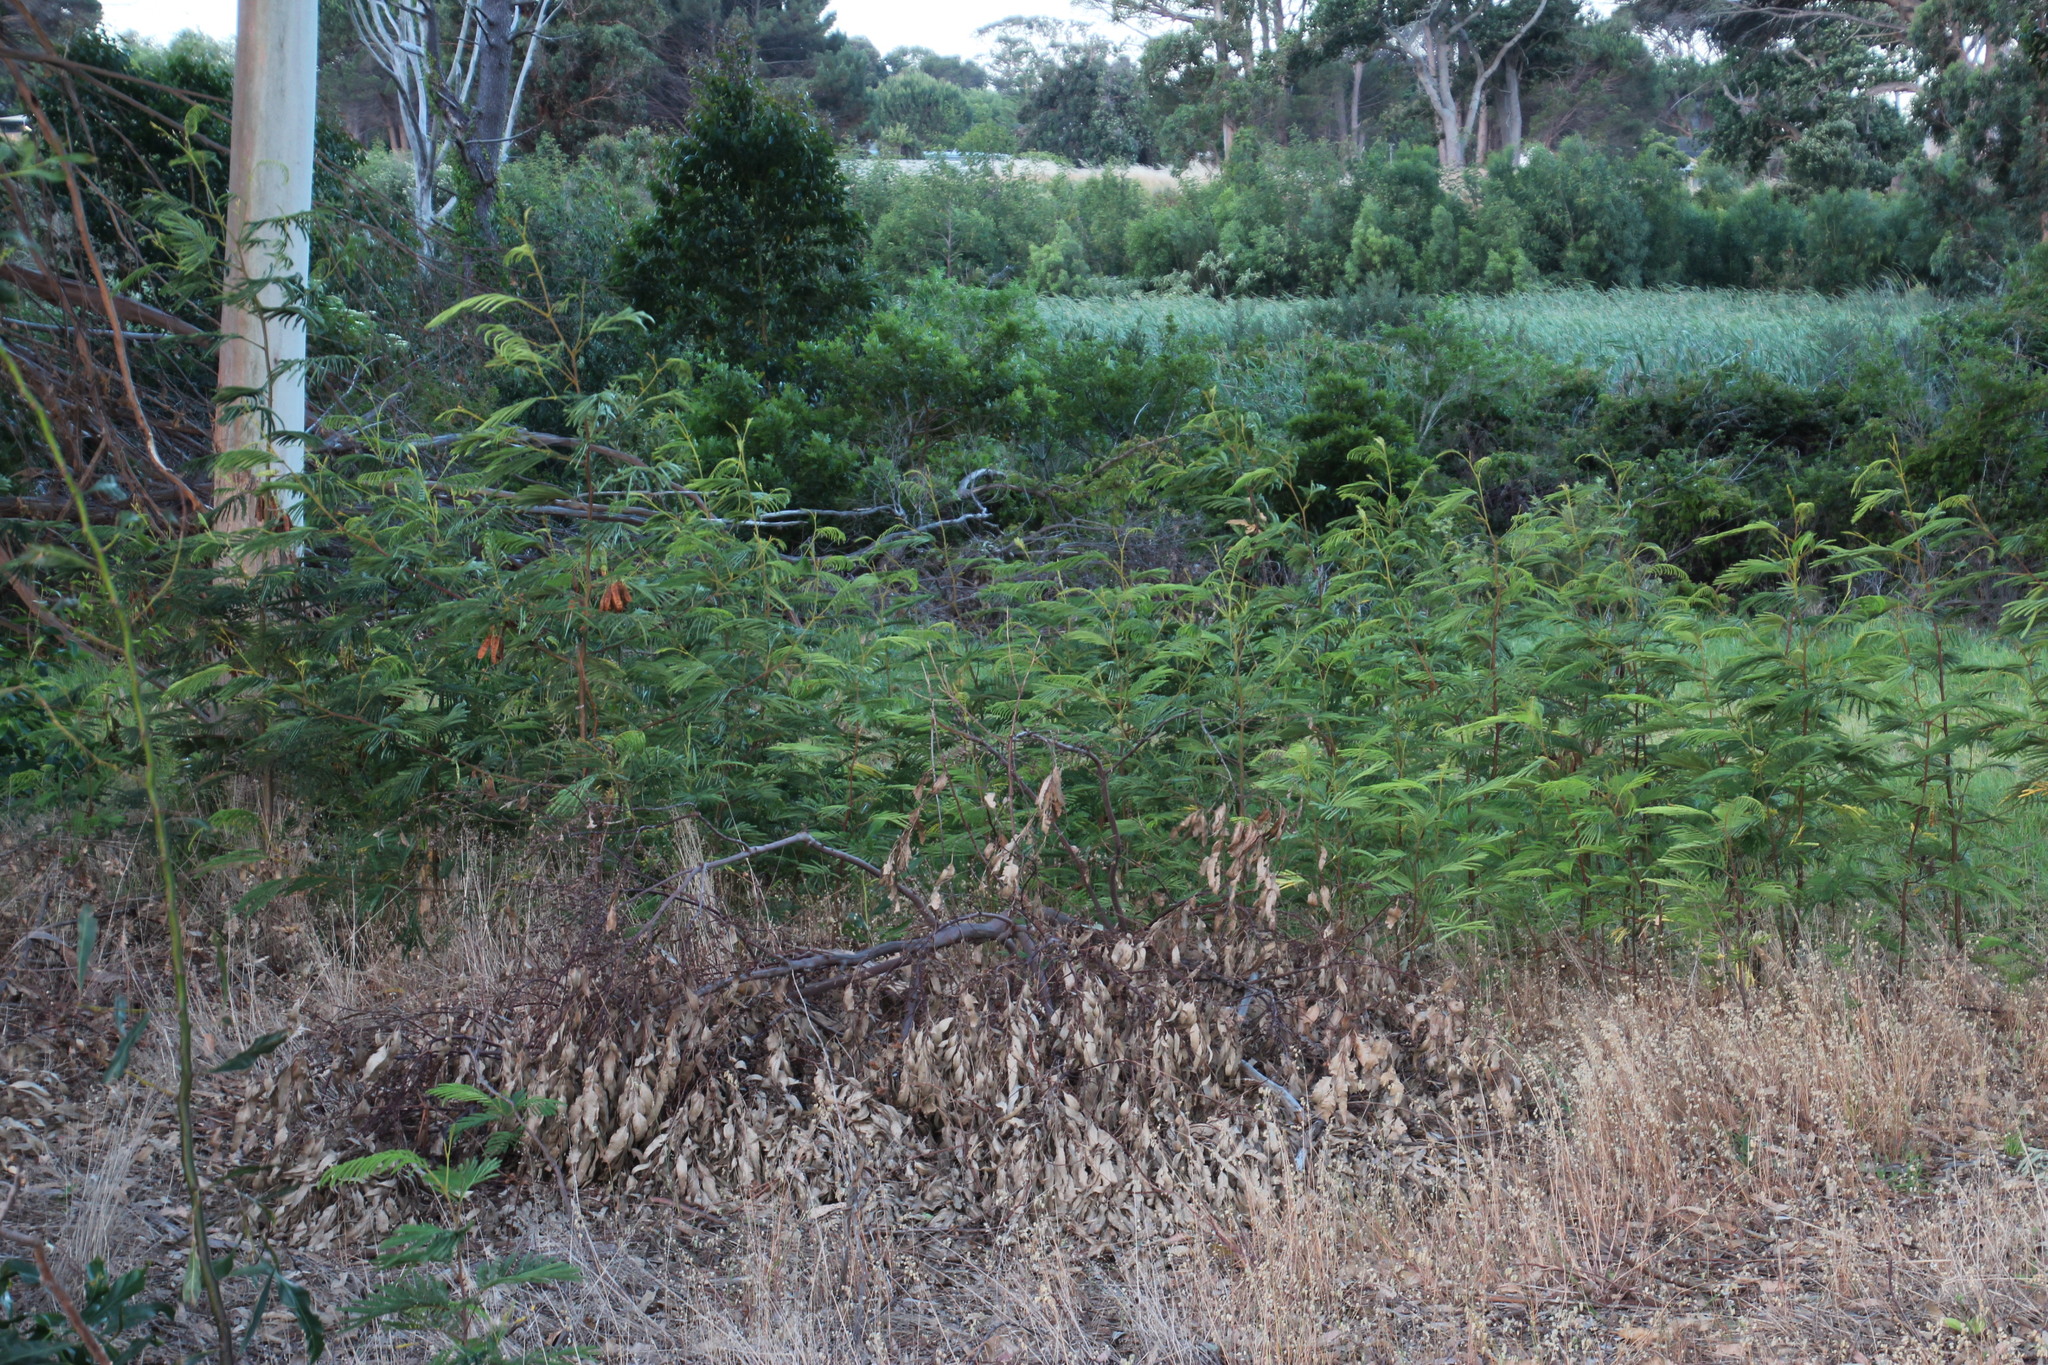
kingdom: Plantae
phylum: Tracheophyta
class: Magnoliopsida
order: Fabales
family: Fabaceae
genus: Paraserianthes
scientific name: Paraserianthes lophantha
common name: Plume albizia
